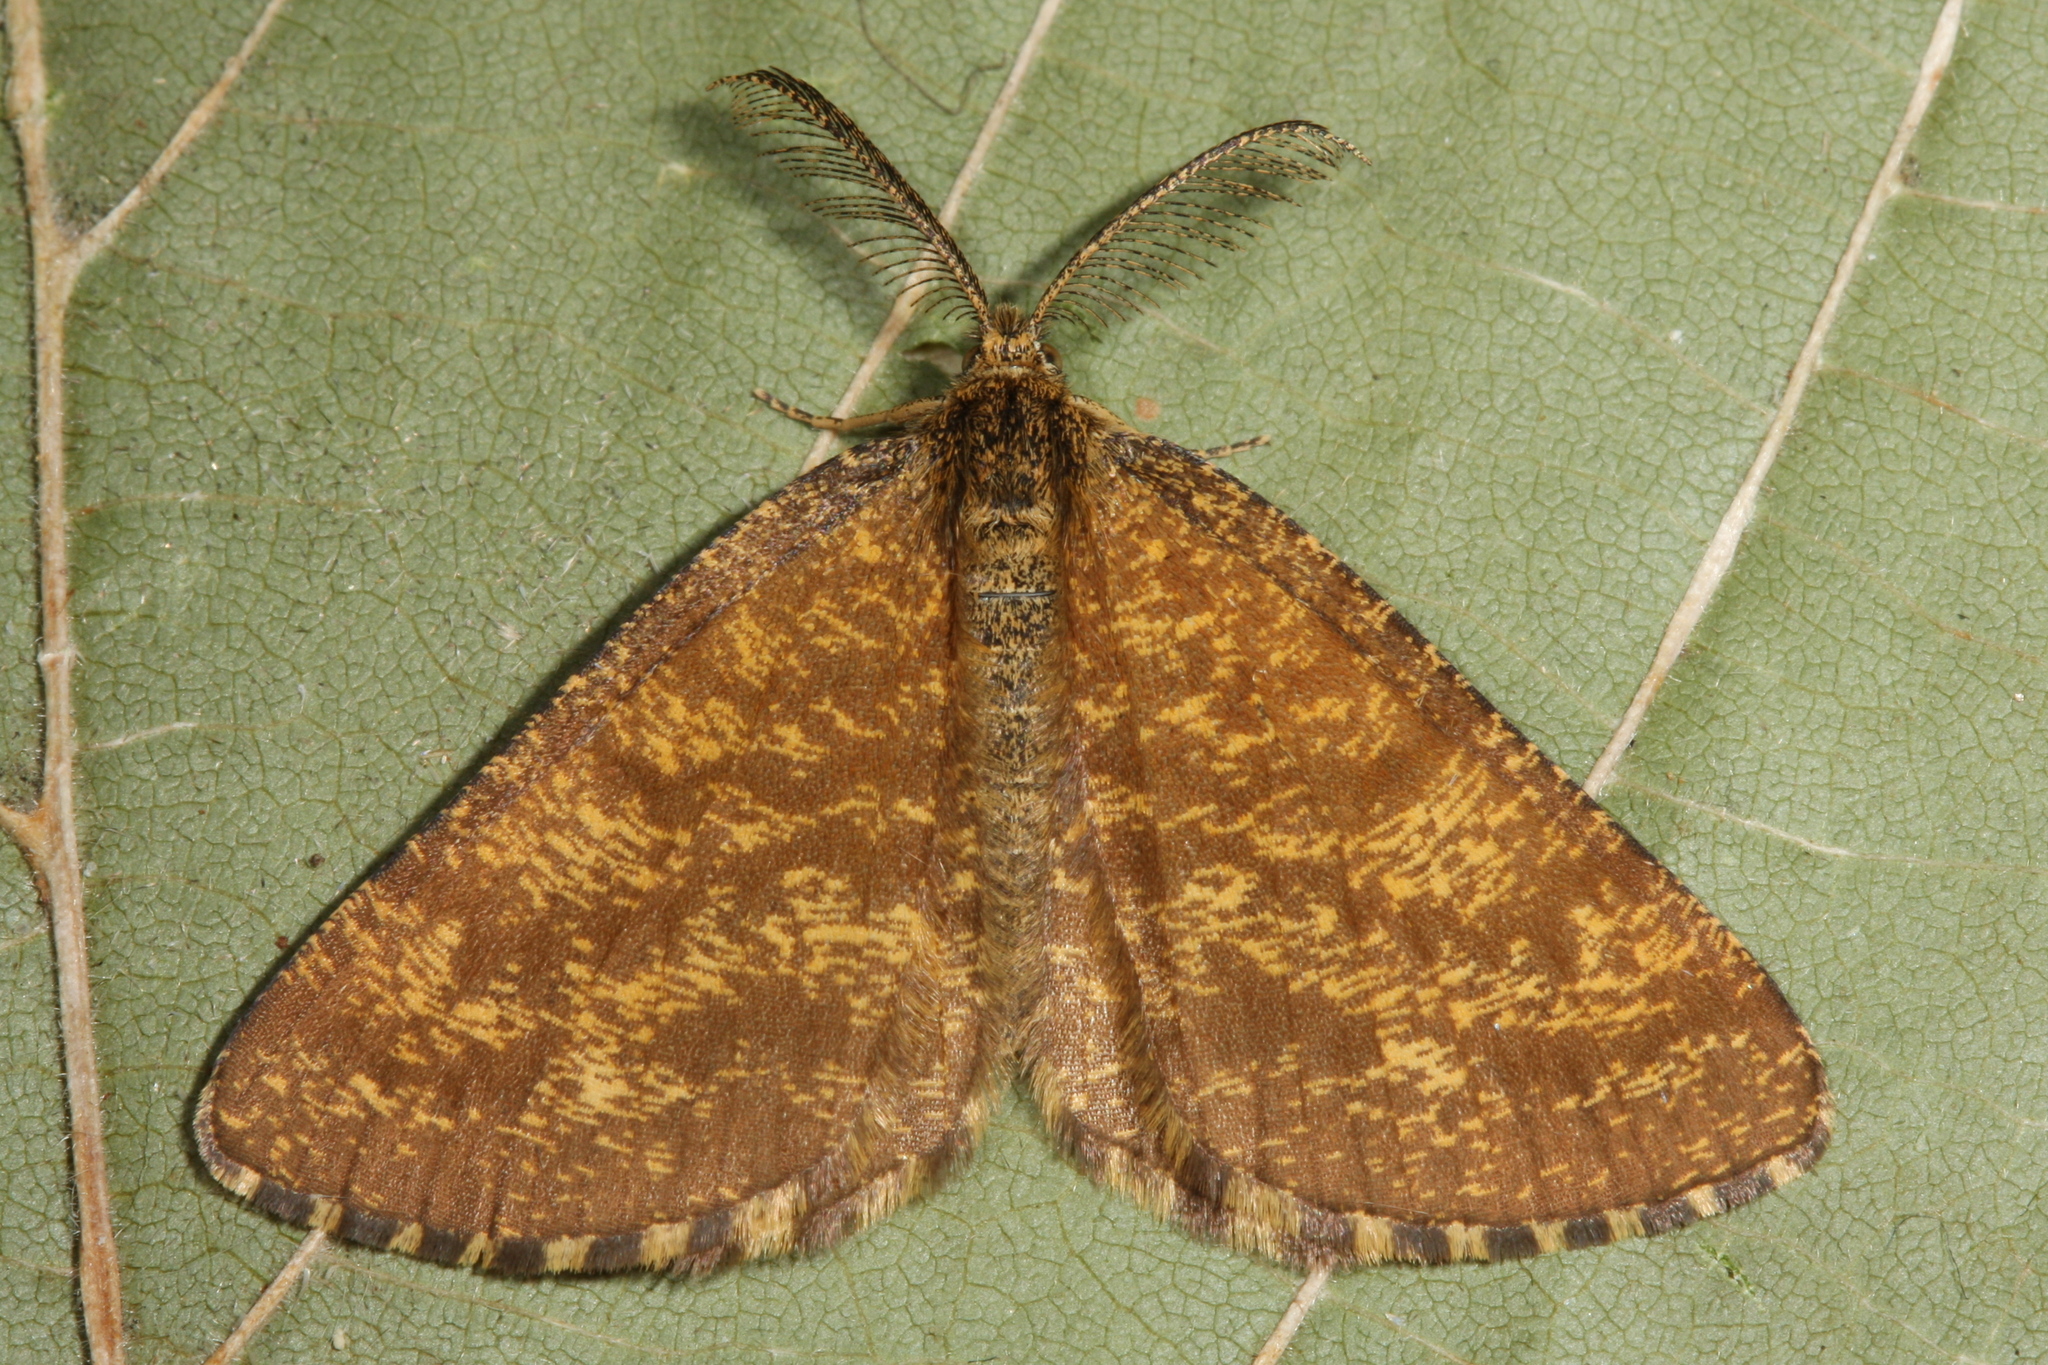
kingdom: Animalia
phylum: Arthropoda
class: Insecta
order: Lepidoptera
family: Geometridae
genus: Ematurga
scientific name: Ematurga atomaria
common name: Common heath
